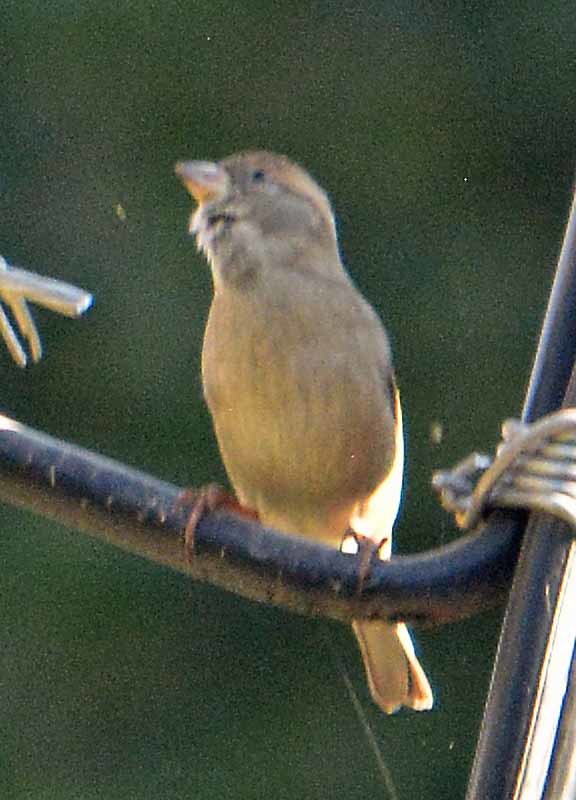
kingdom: Animalia
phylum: Chordata
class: Aves
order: Passeriformes
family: Passeridae
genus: Passer
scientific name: Passer domesticus
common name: House sparrow
